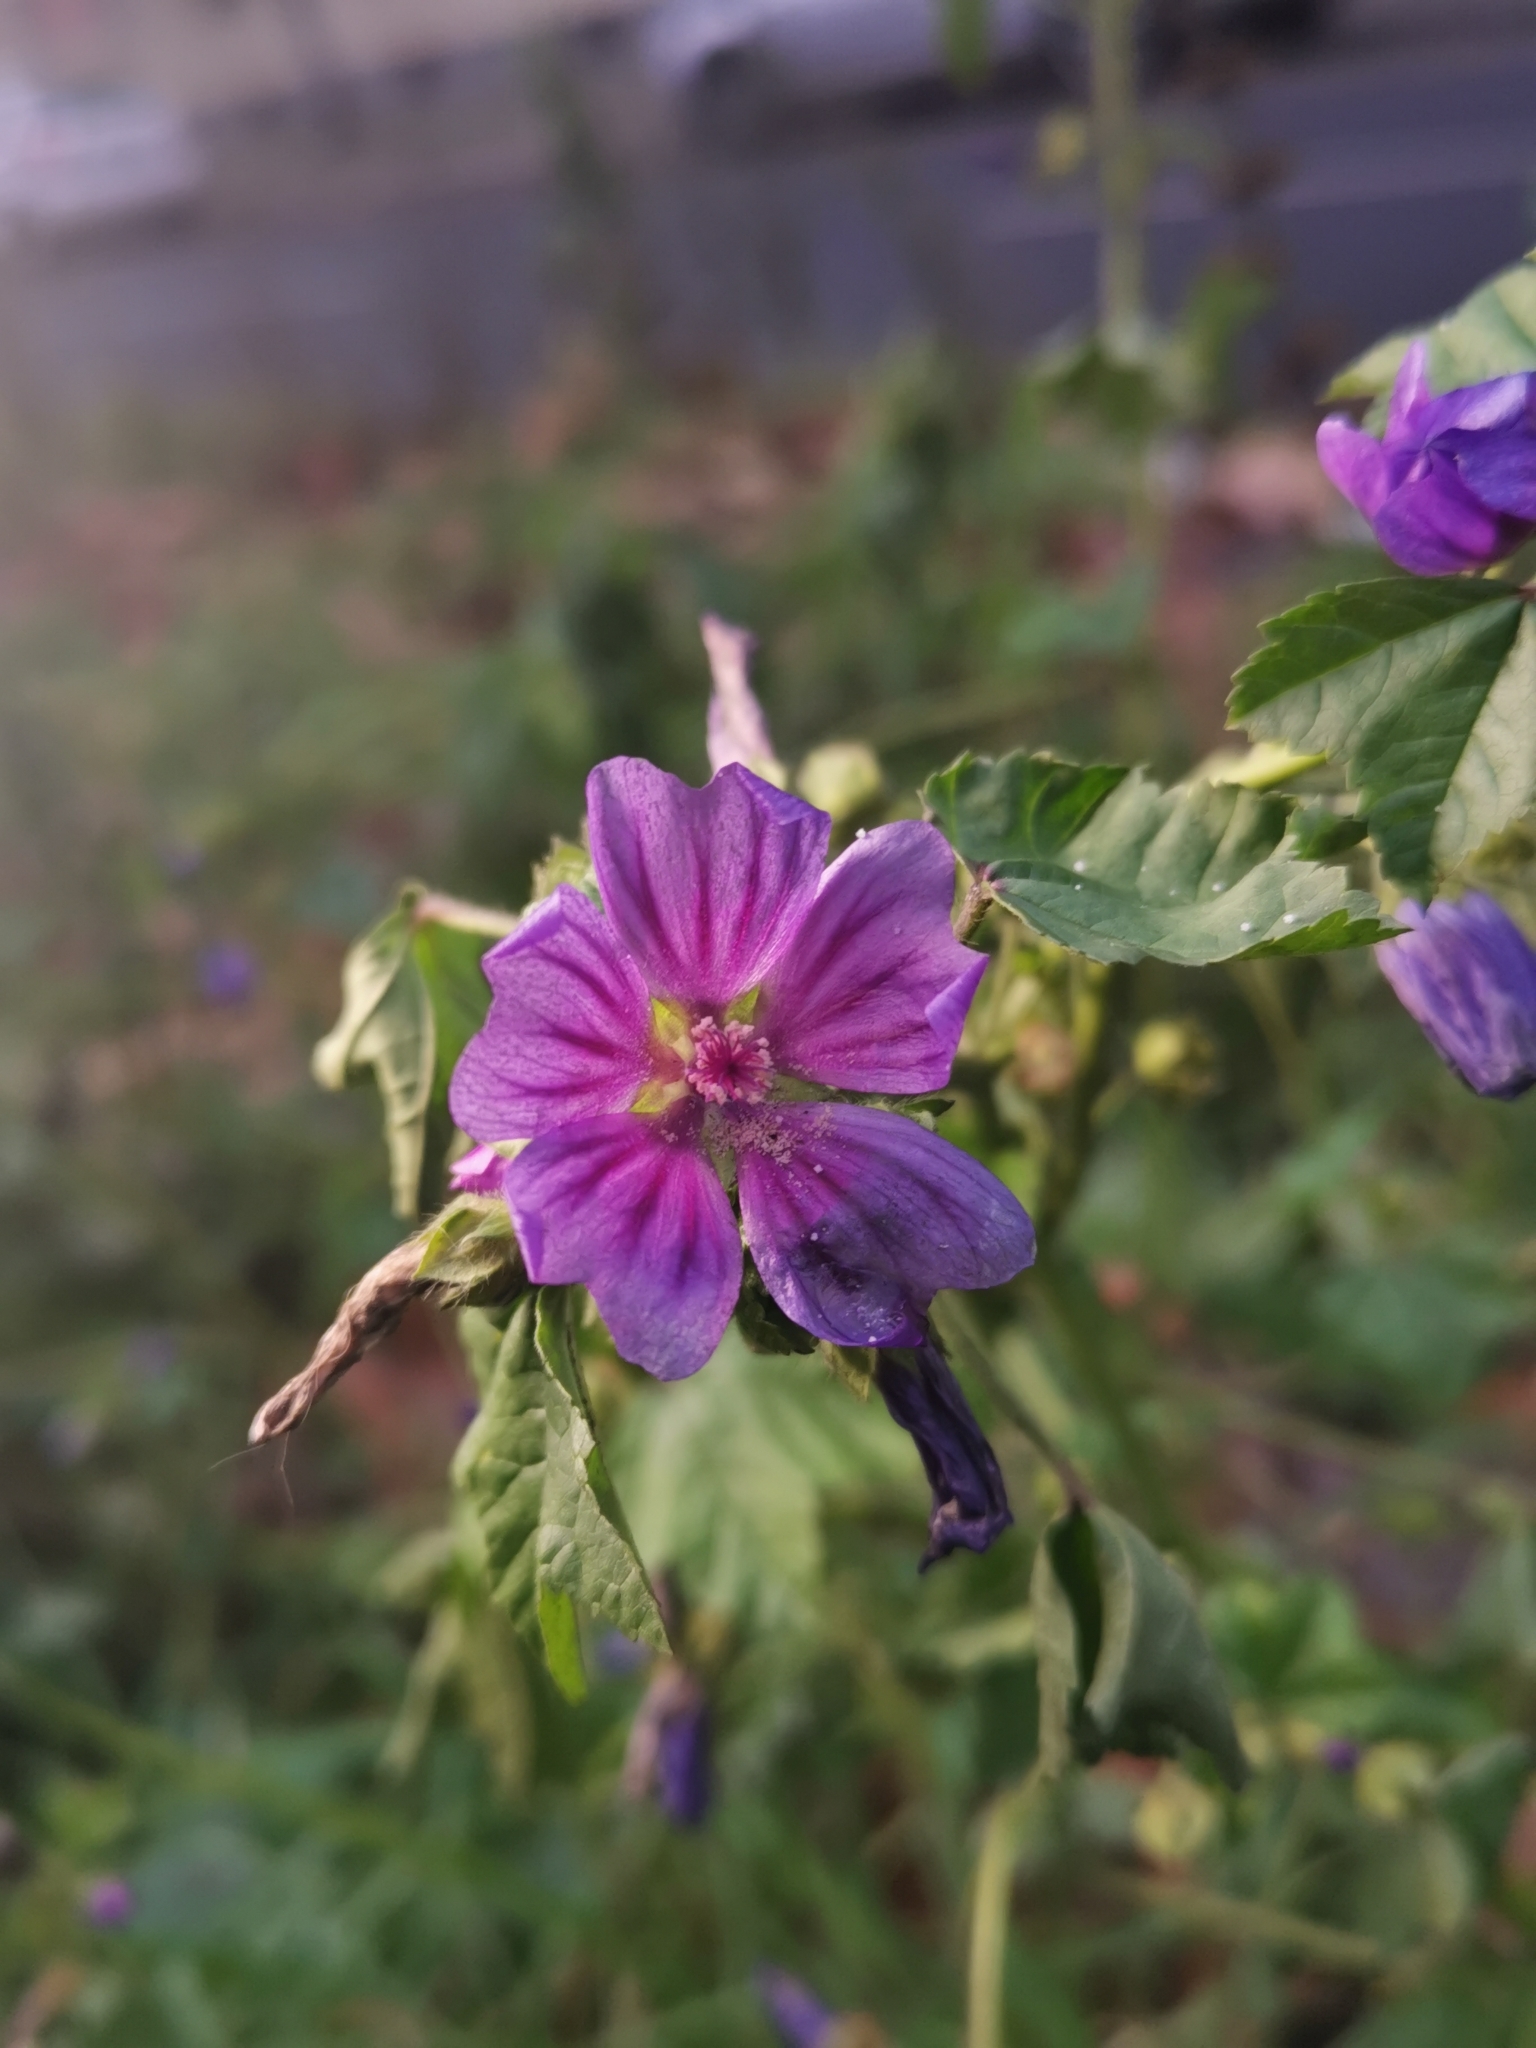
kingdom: Plantae
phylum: Tracheophyta
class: Magnoliopsida
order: Malvales
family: Malvaceae
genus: Malva
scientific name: Malva sylvestris
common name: Common mallow
